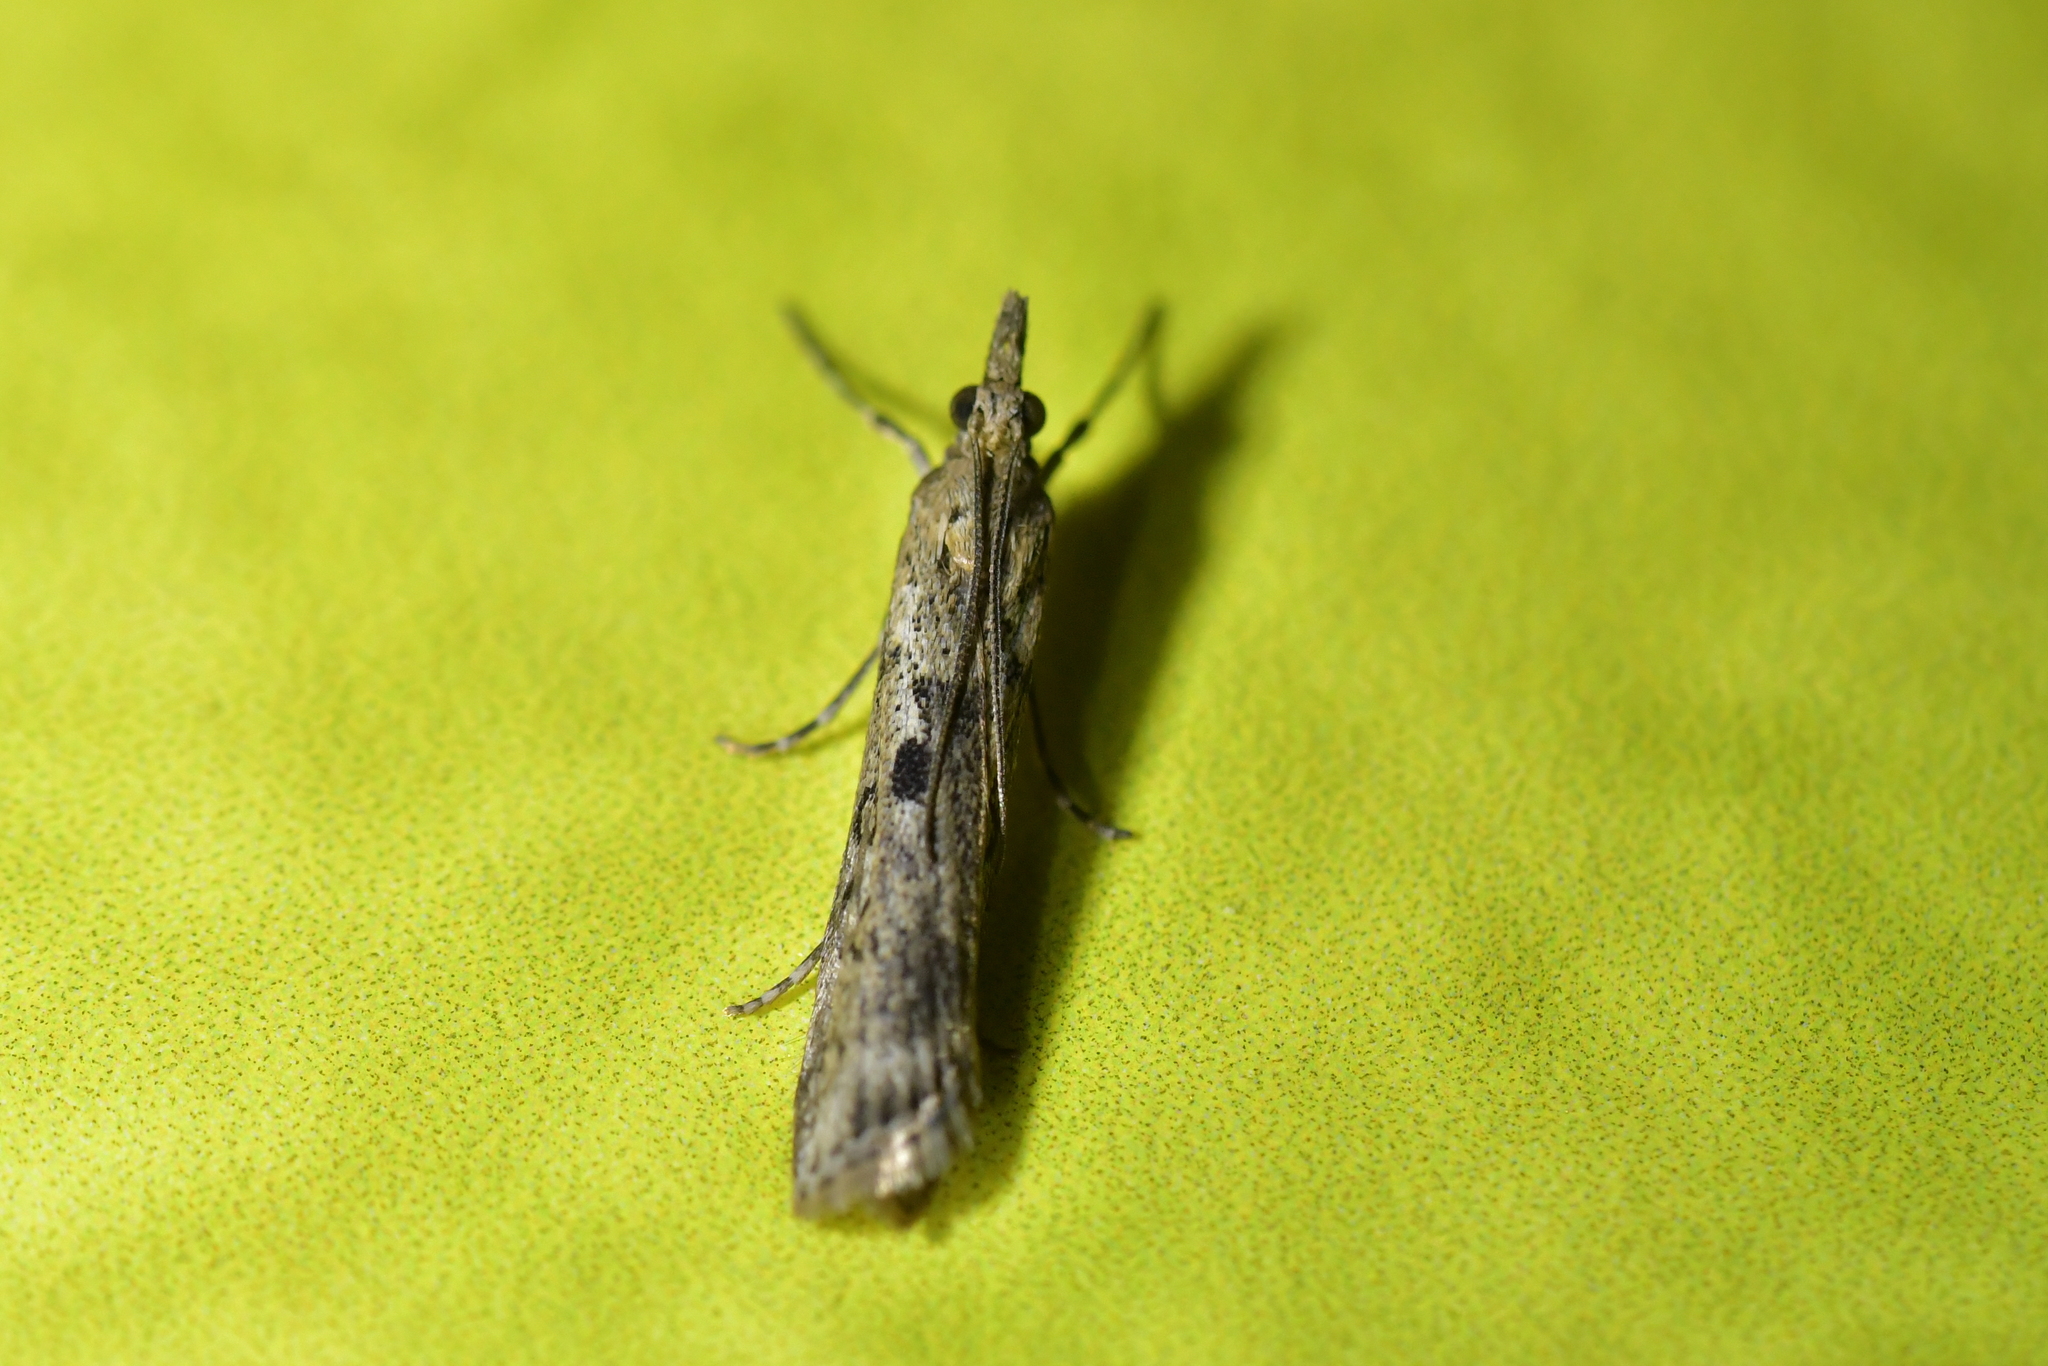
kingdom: Animalia
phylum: Arthropoda
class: Insecta
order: Lepidoptera
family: Crambidae
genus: Eudonia
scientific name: Eudonia leptalea
